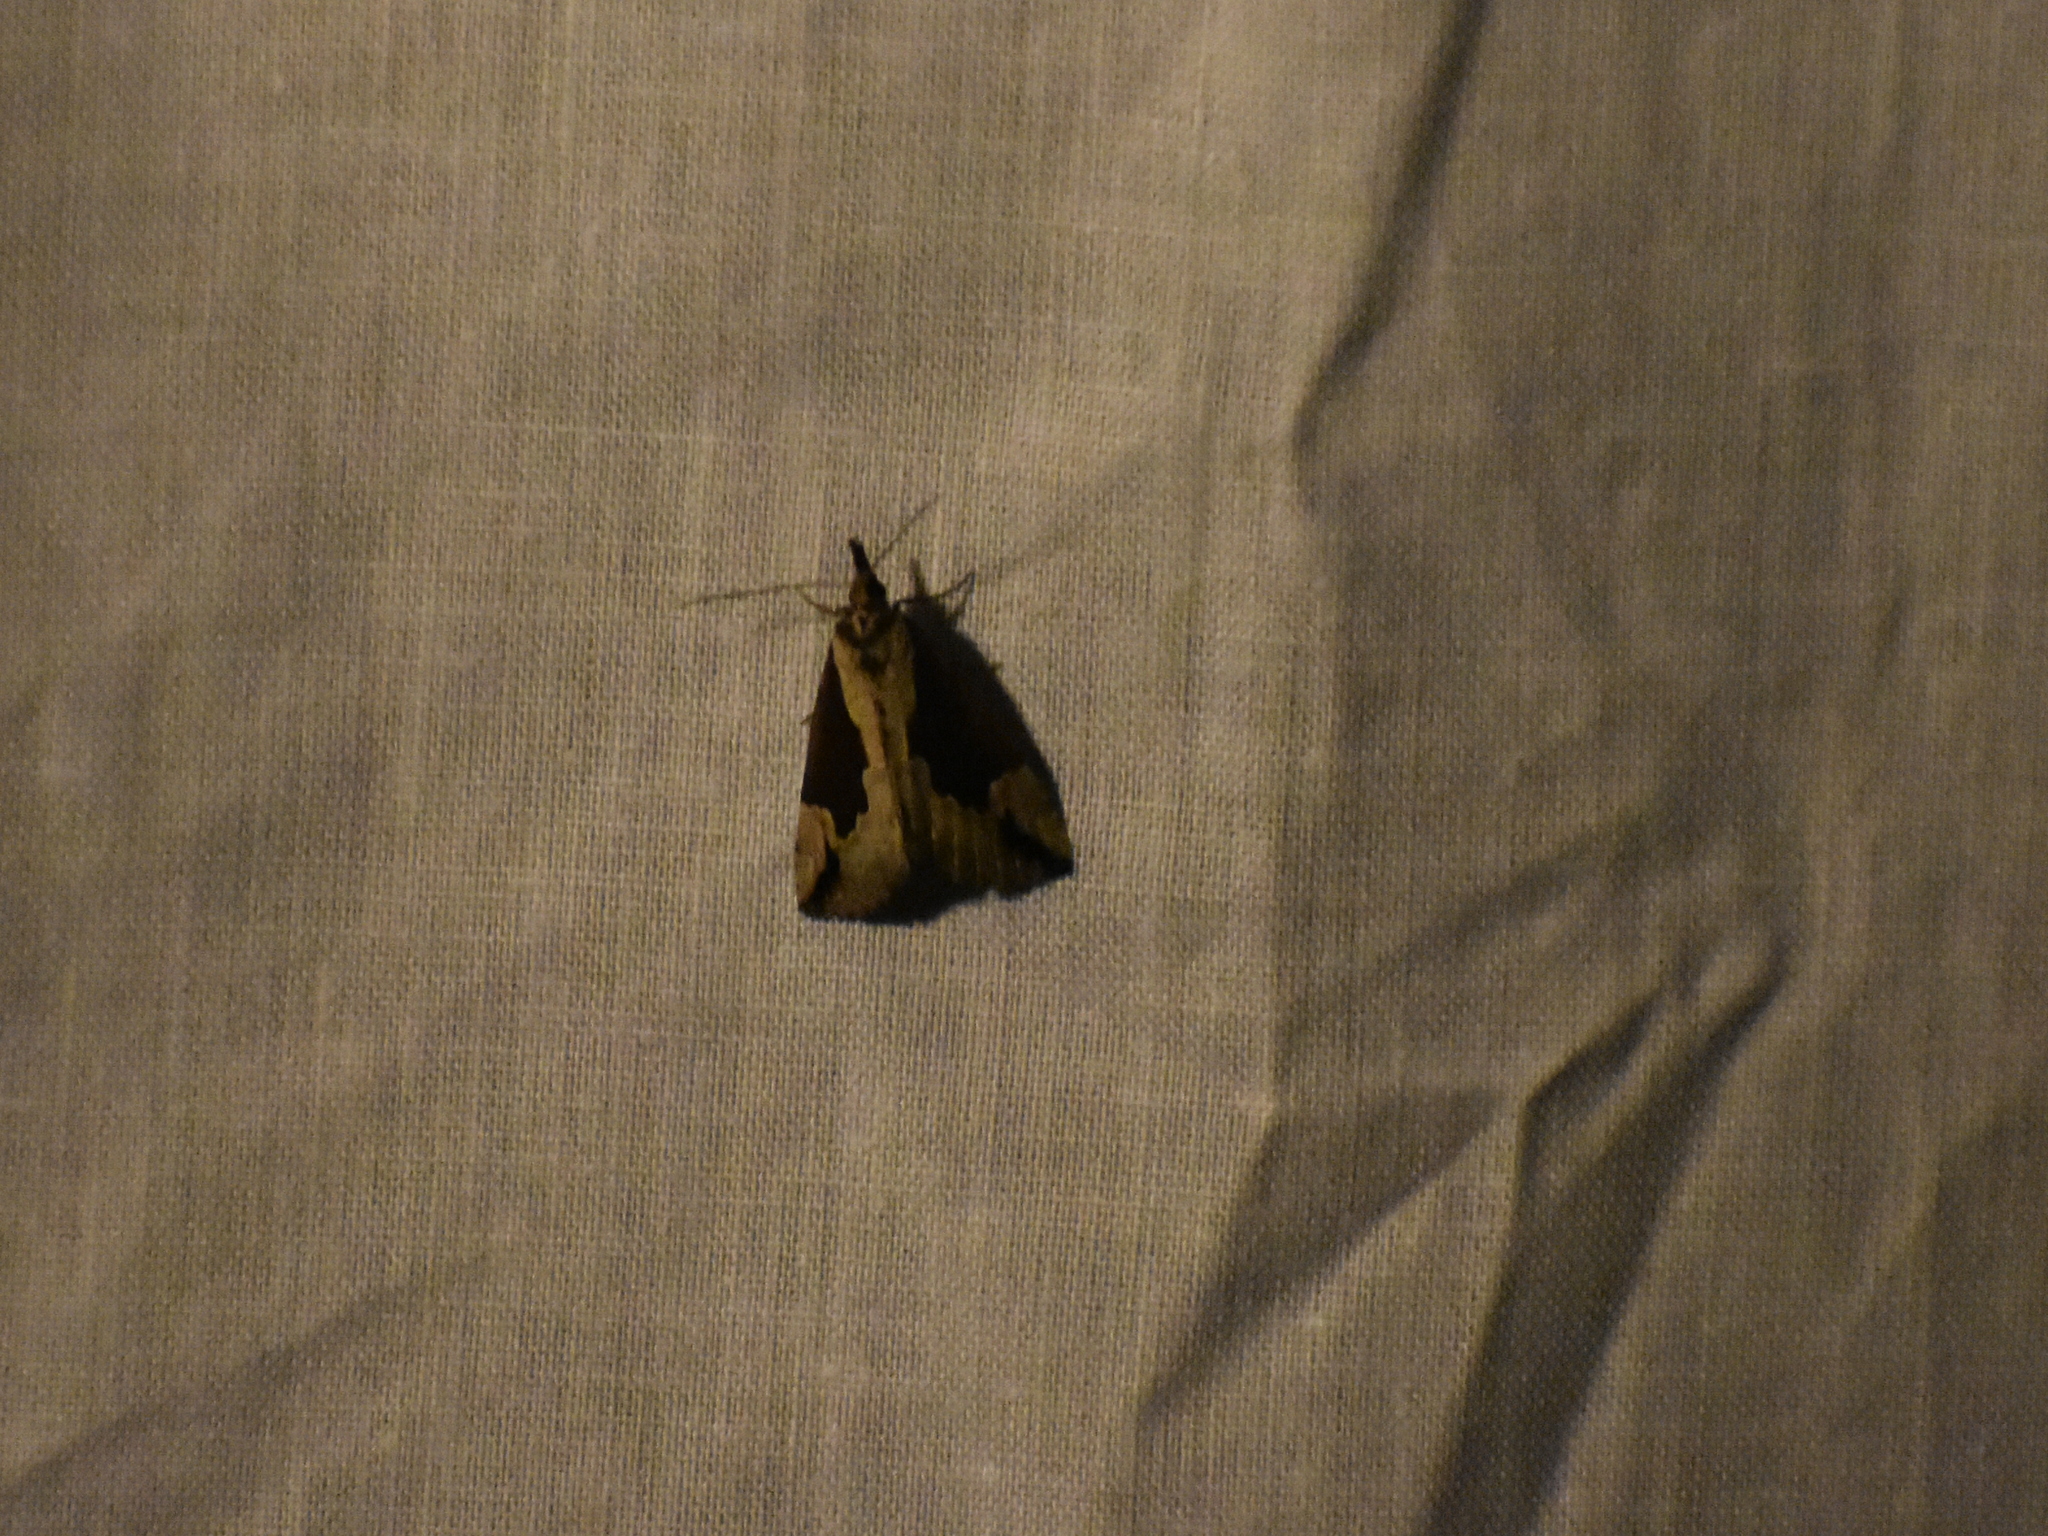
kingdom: Animalia
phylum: Arthropoda
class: Insecta
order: Lepidoptera
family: Erebidae
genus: Hypena
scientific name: Hypena baltimoralis
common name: Baltimore snout
